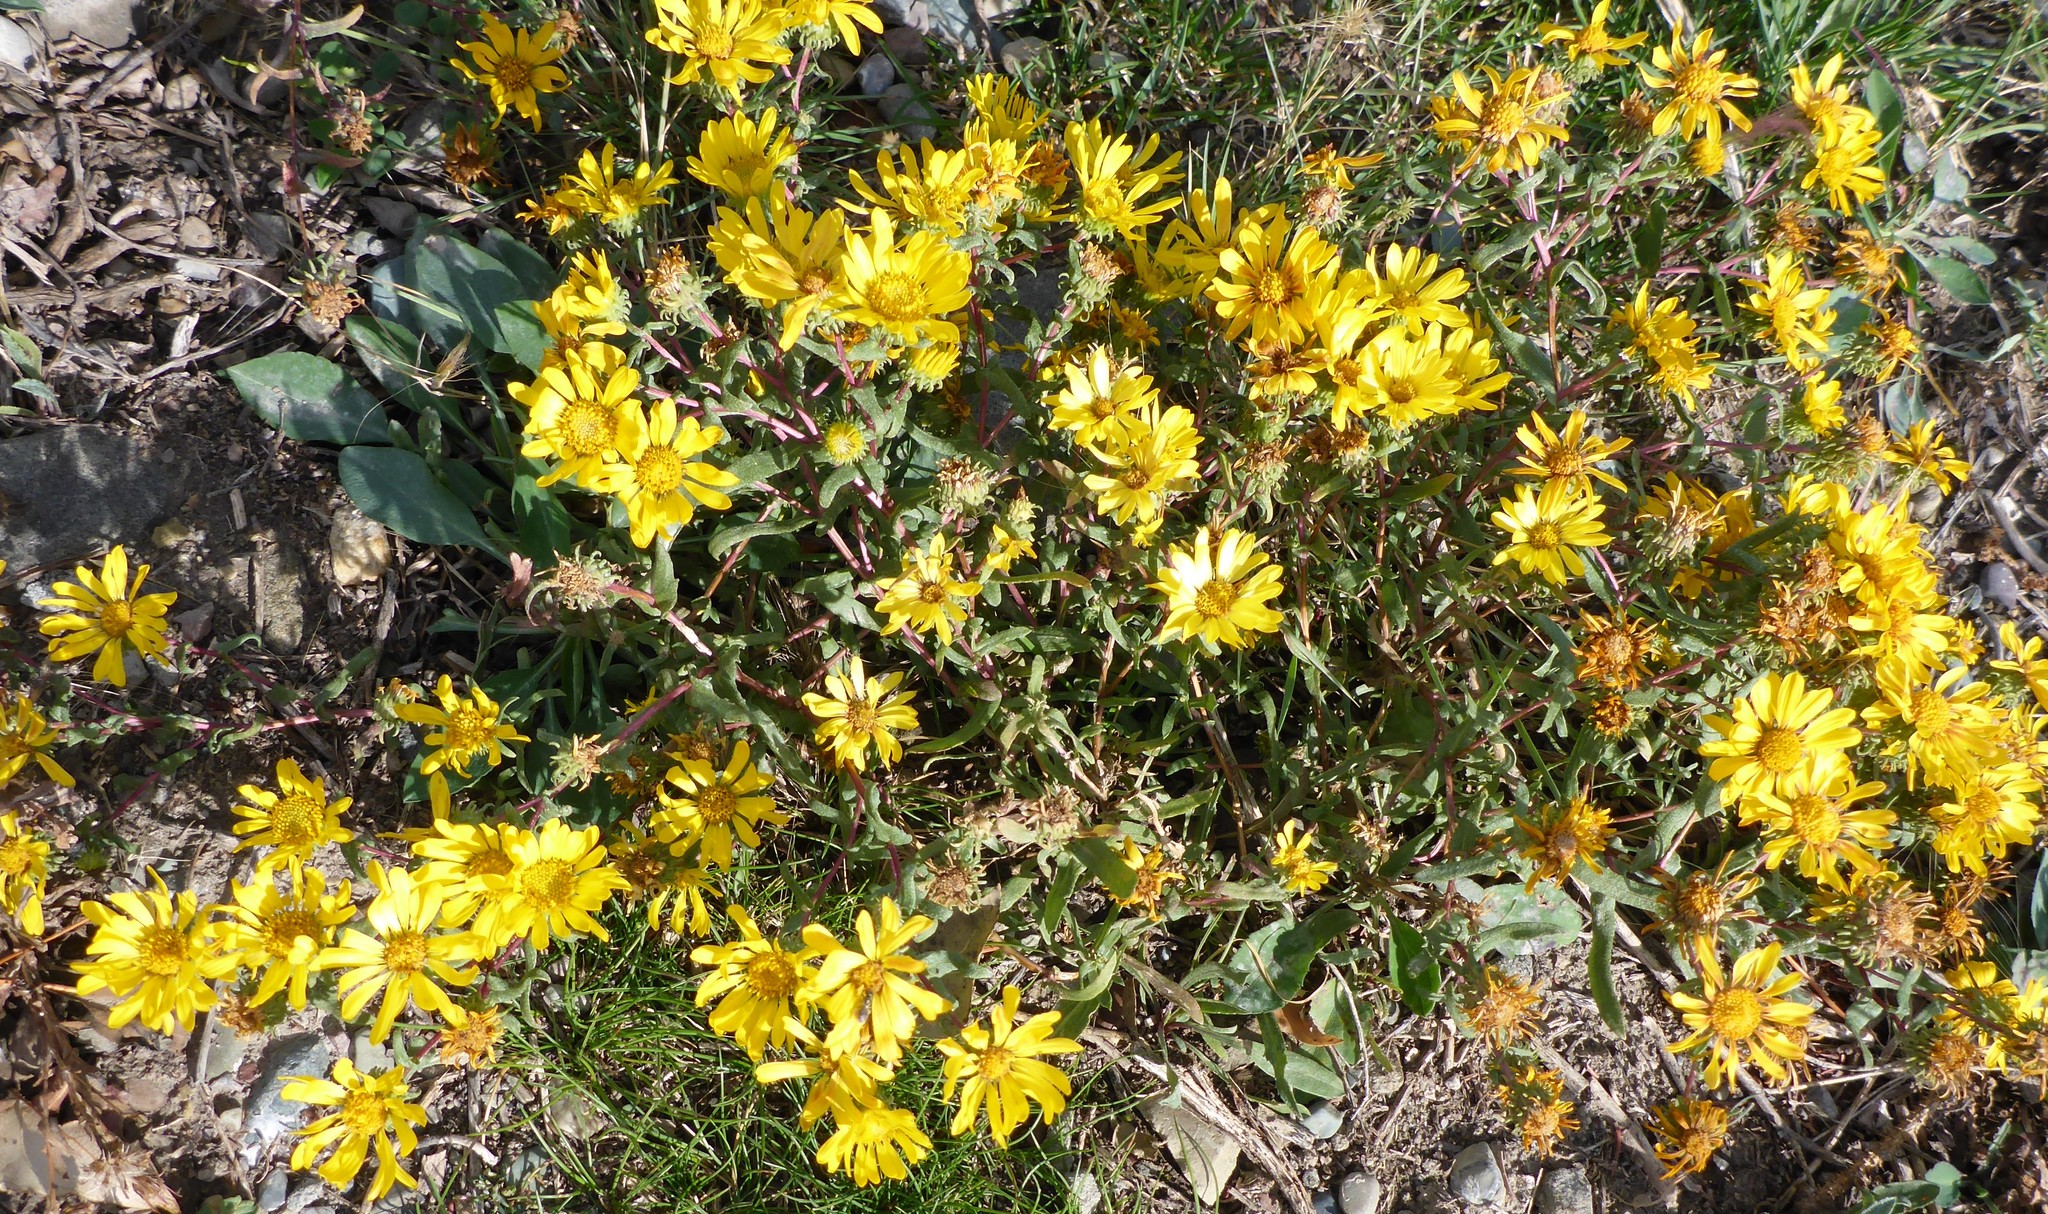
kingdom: Plantae
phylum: Tracheophyta
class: Magnoliopsida
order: Asterales
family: Asteraceae
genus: Grindelia
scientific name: Grindelia squarrosa
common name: Curly-cup gumweed
